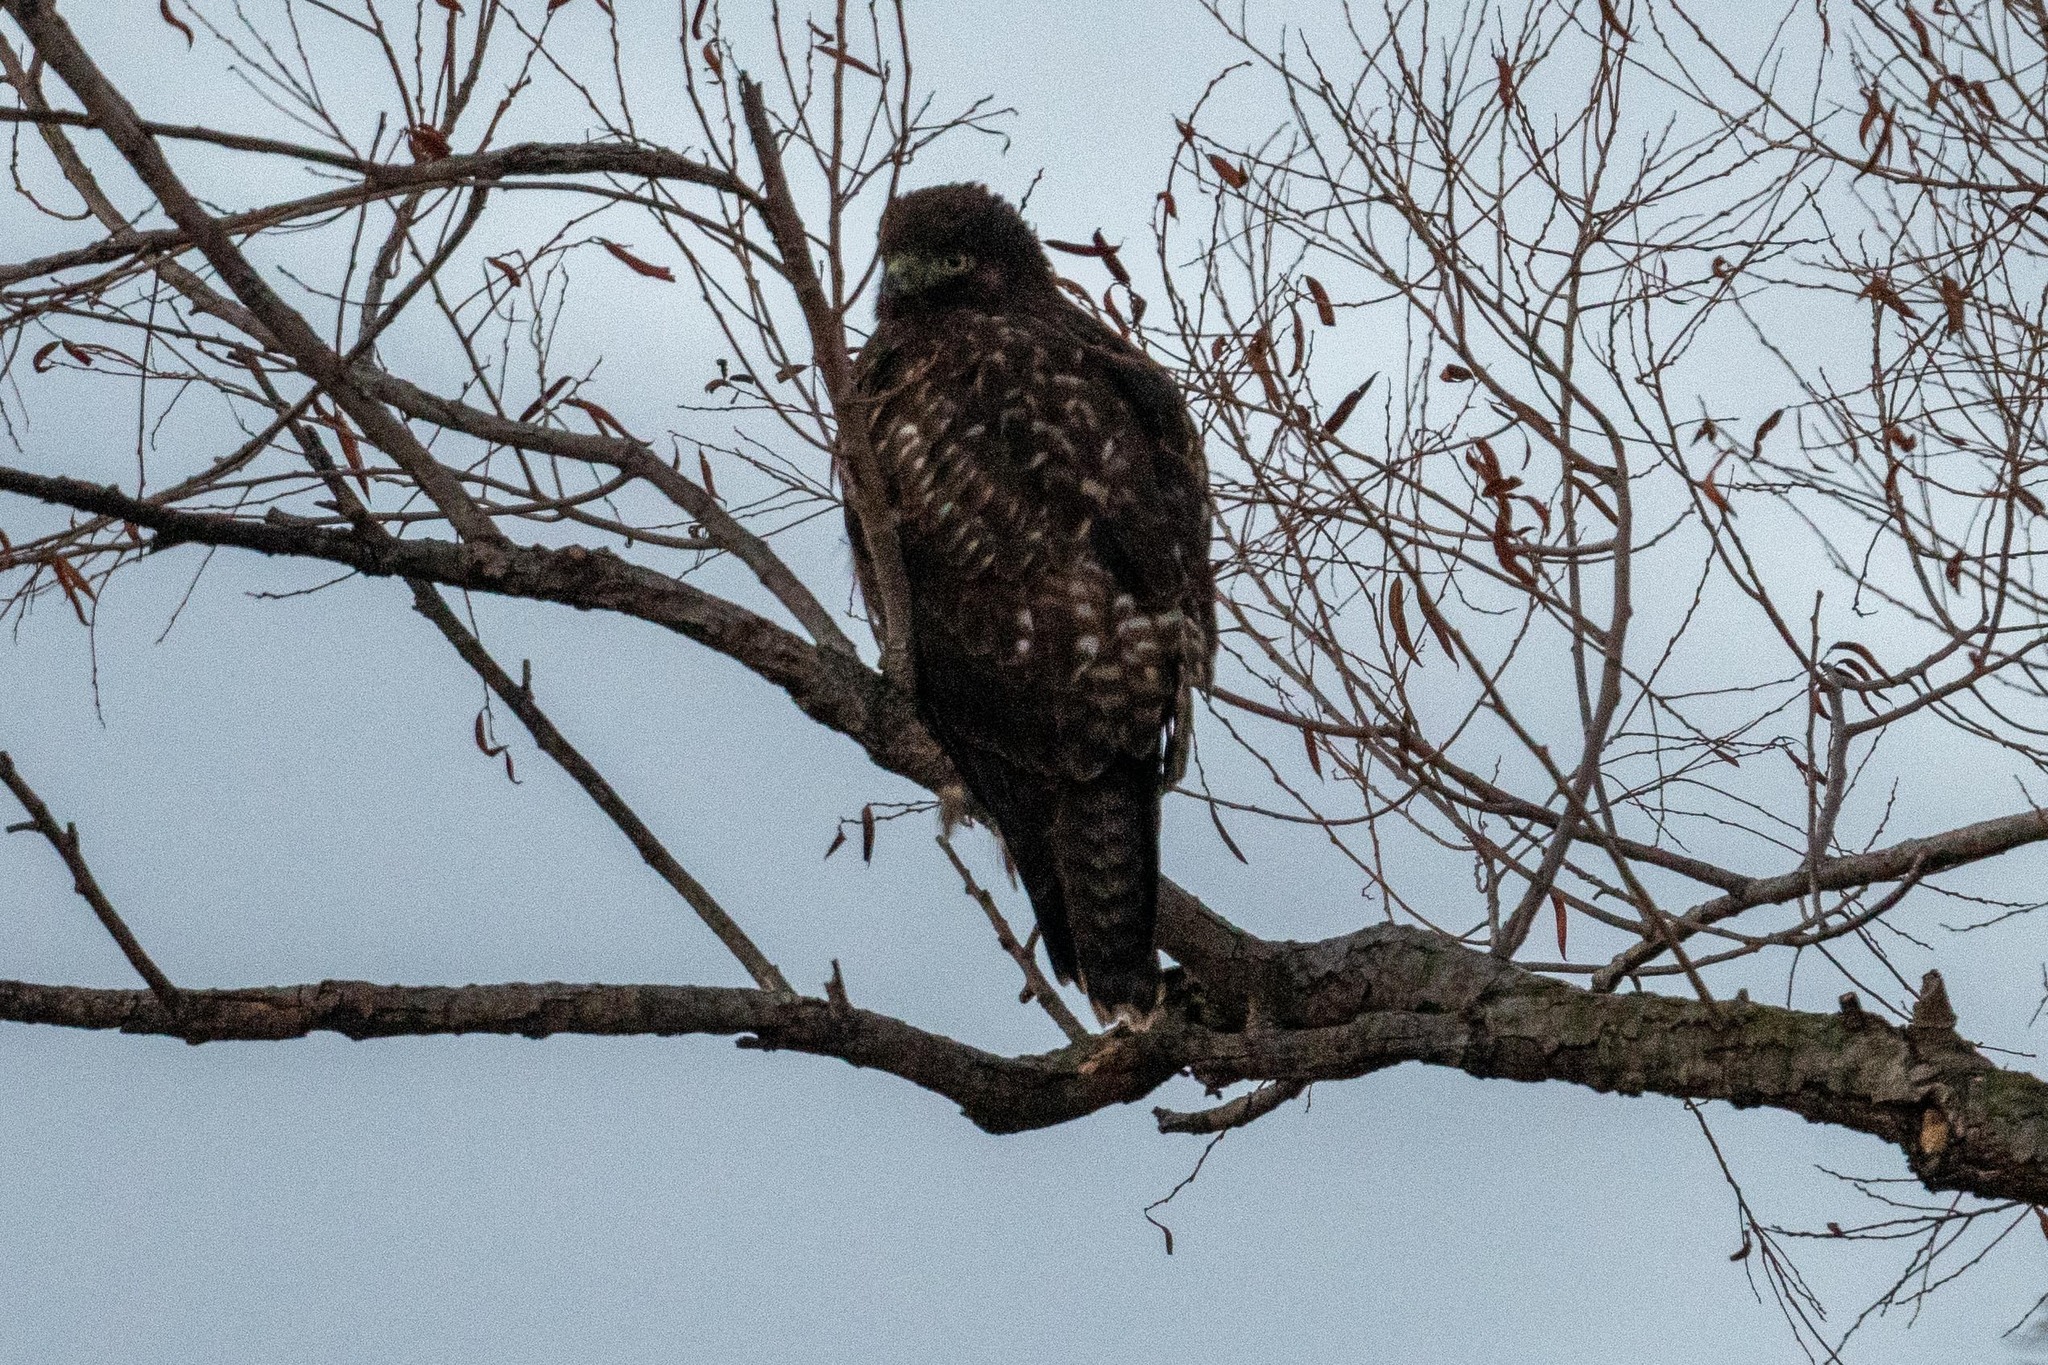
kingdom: Animalia
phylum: Chordata
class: Aves
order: Accipitriformes
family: Accipitridae
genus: Buteo
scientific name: Buteo jamaicensis
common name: Red-tailed hawk
